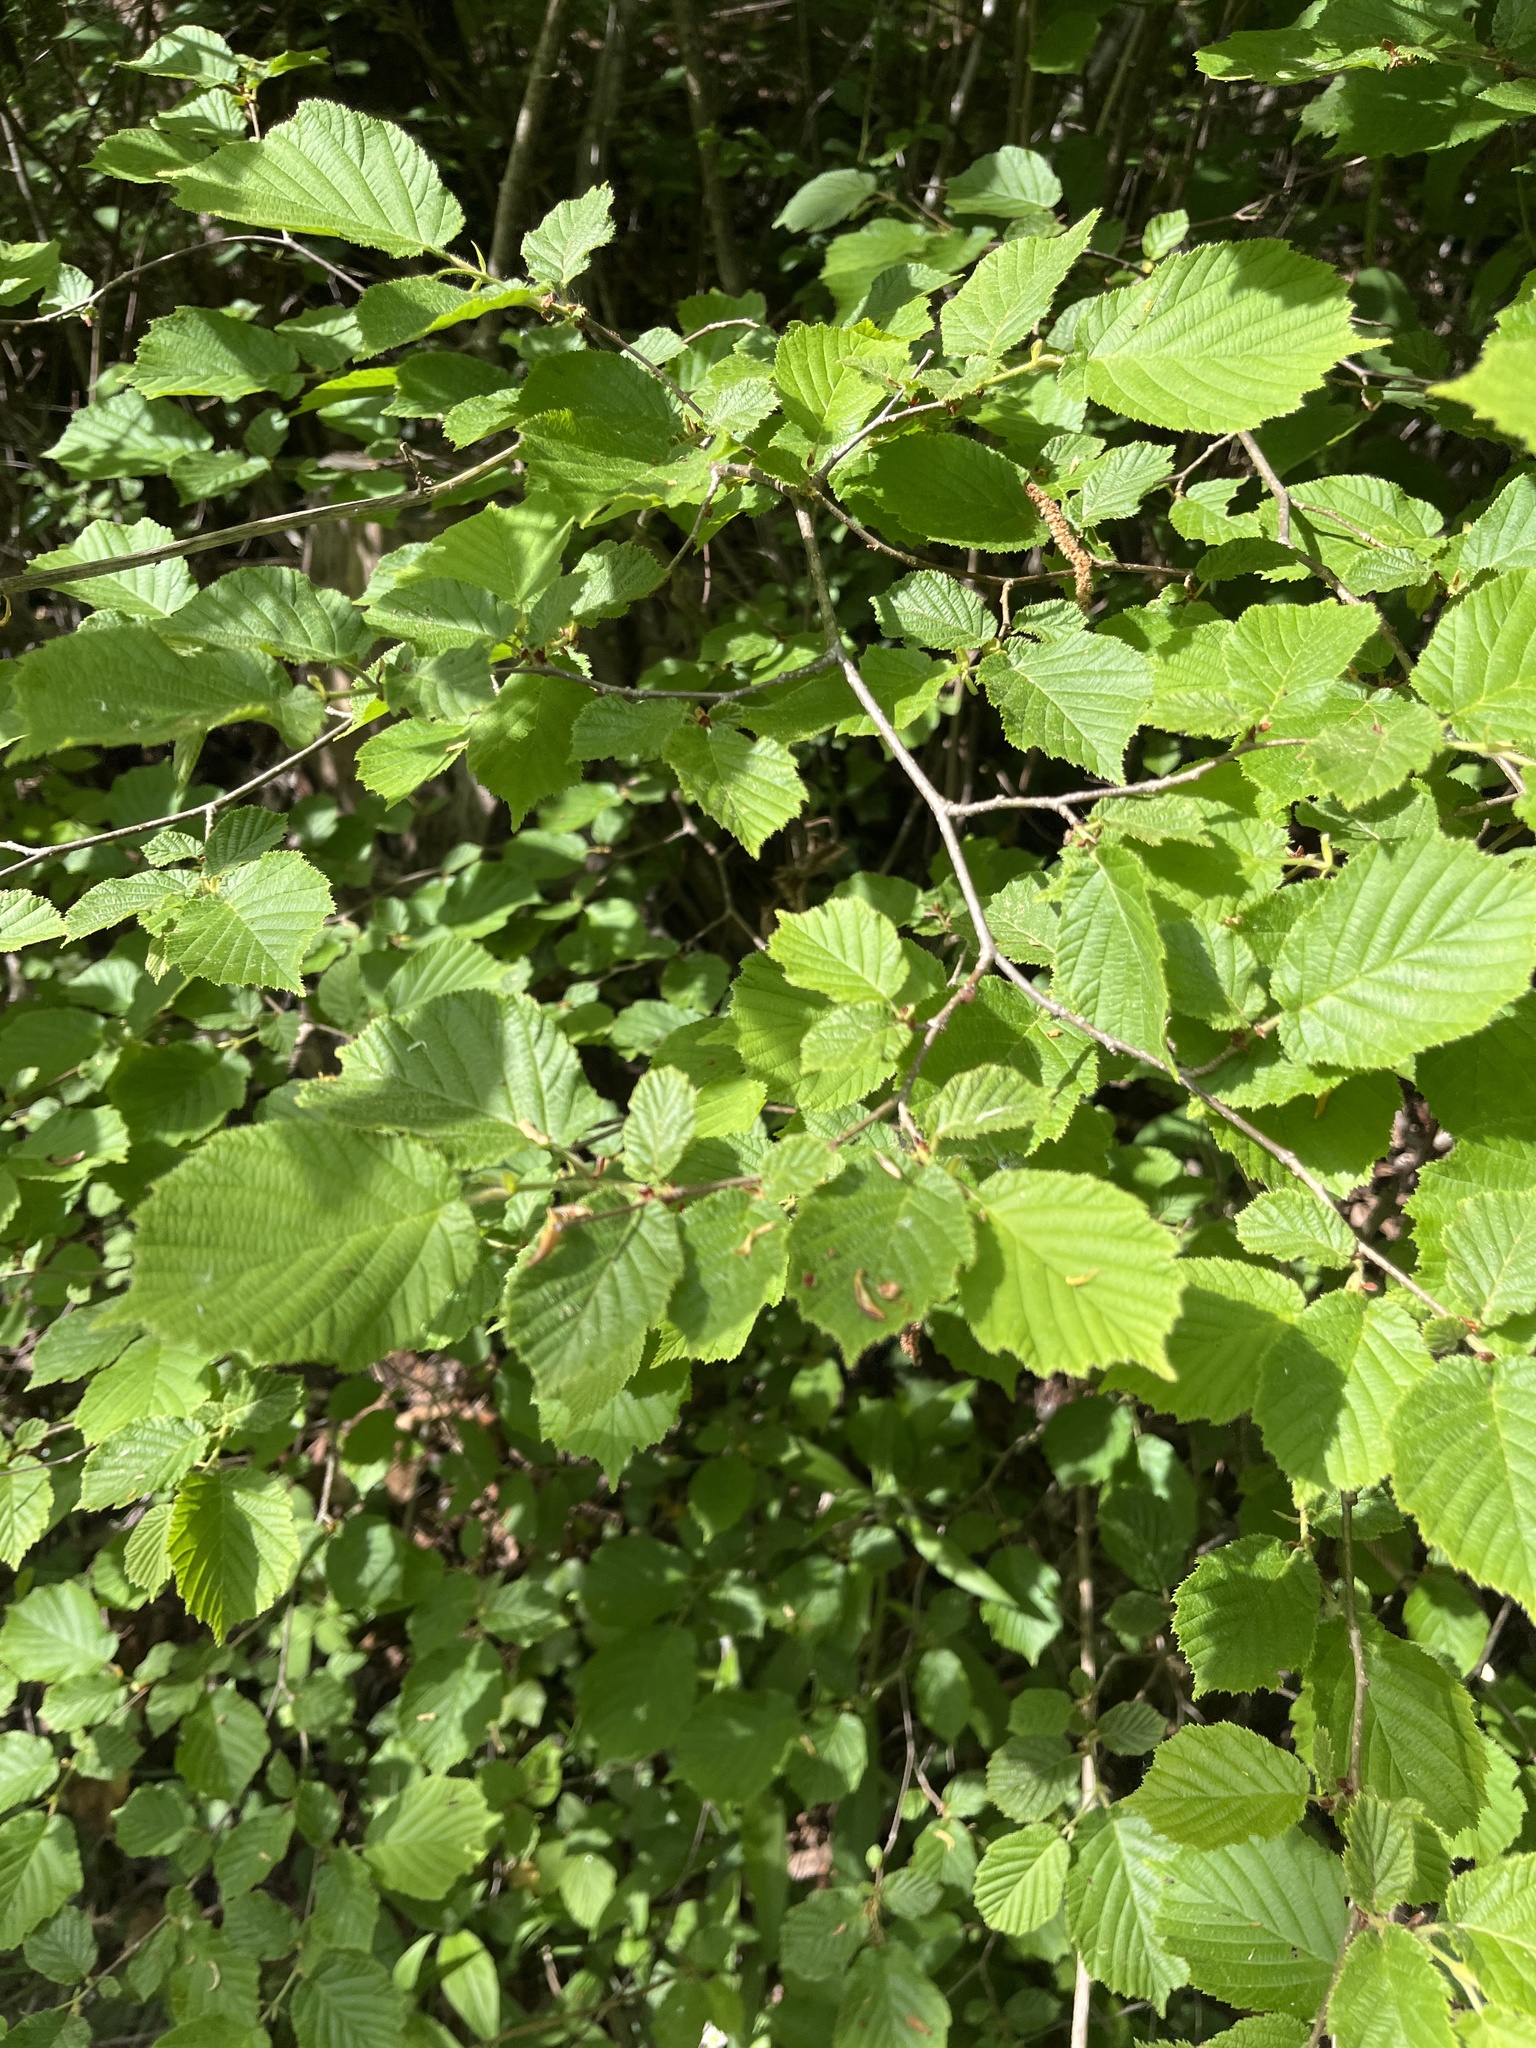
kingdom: Plantae
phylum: Tracheophyta
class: Magnoliopsida
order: Fagales
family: Betulaceae
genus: Corylus
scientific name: Corylus avellana
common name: European hazel
